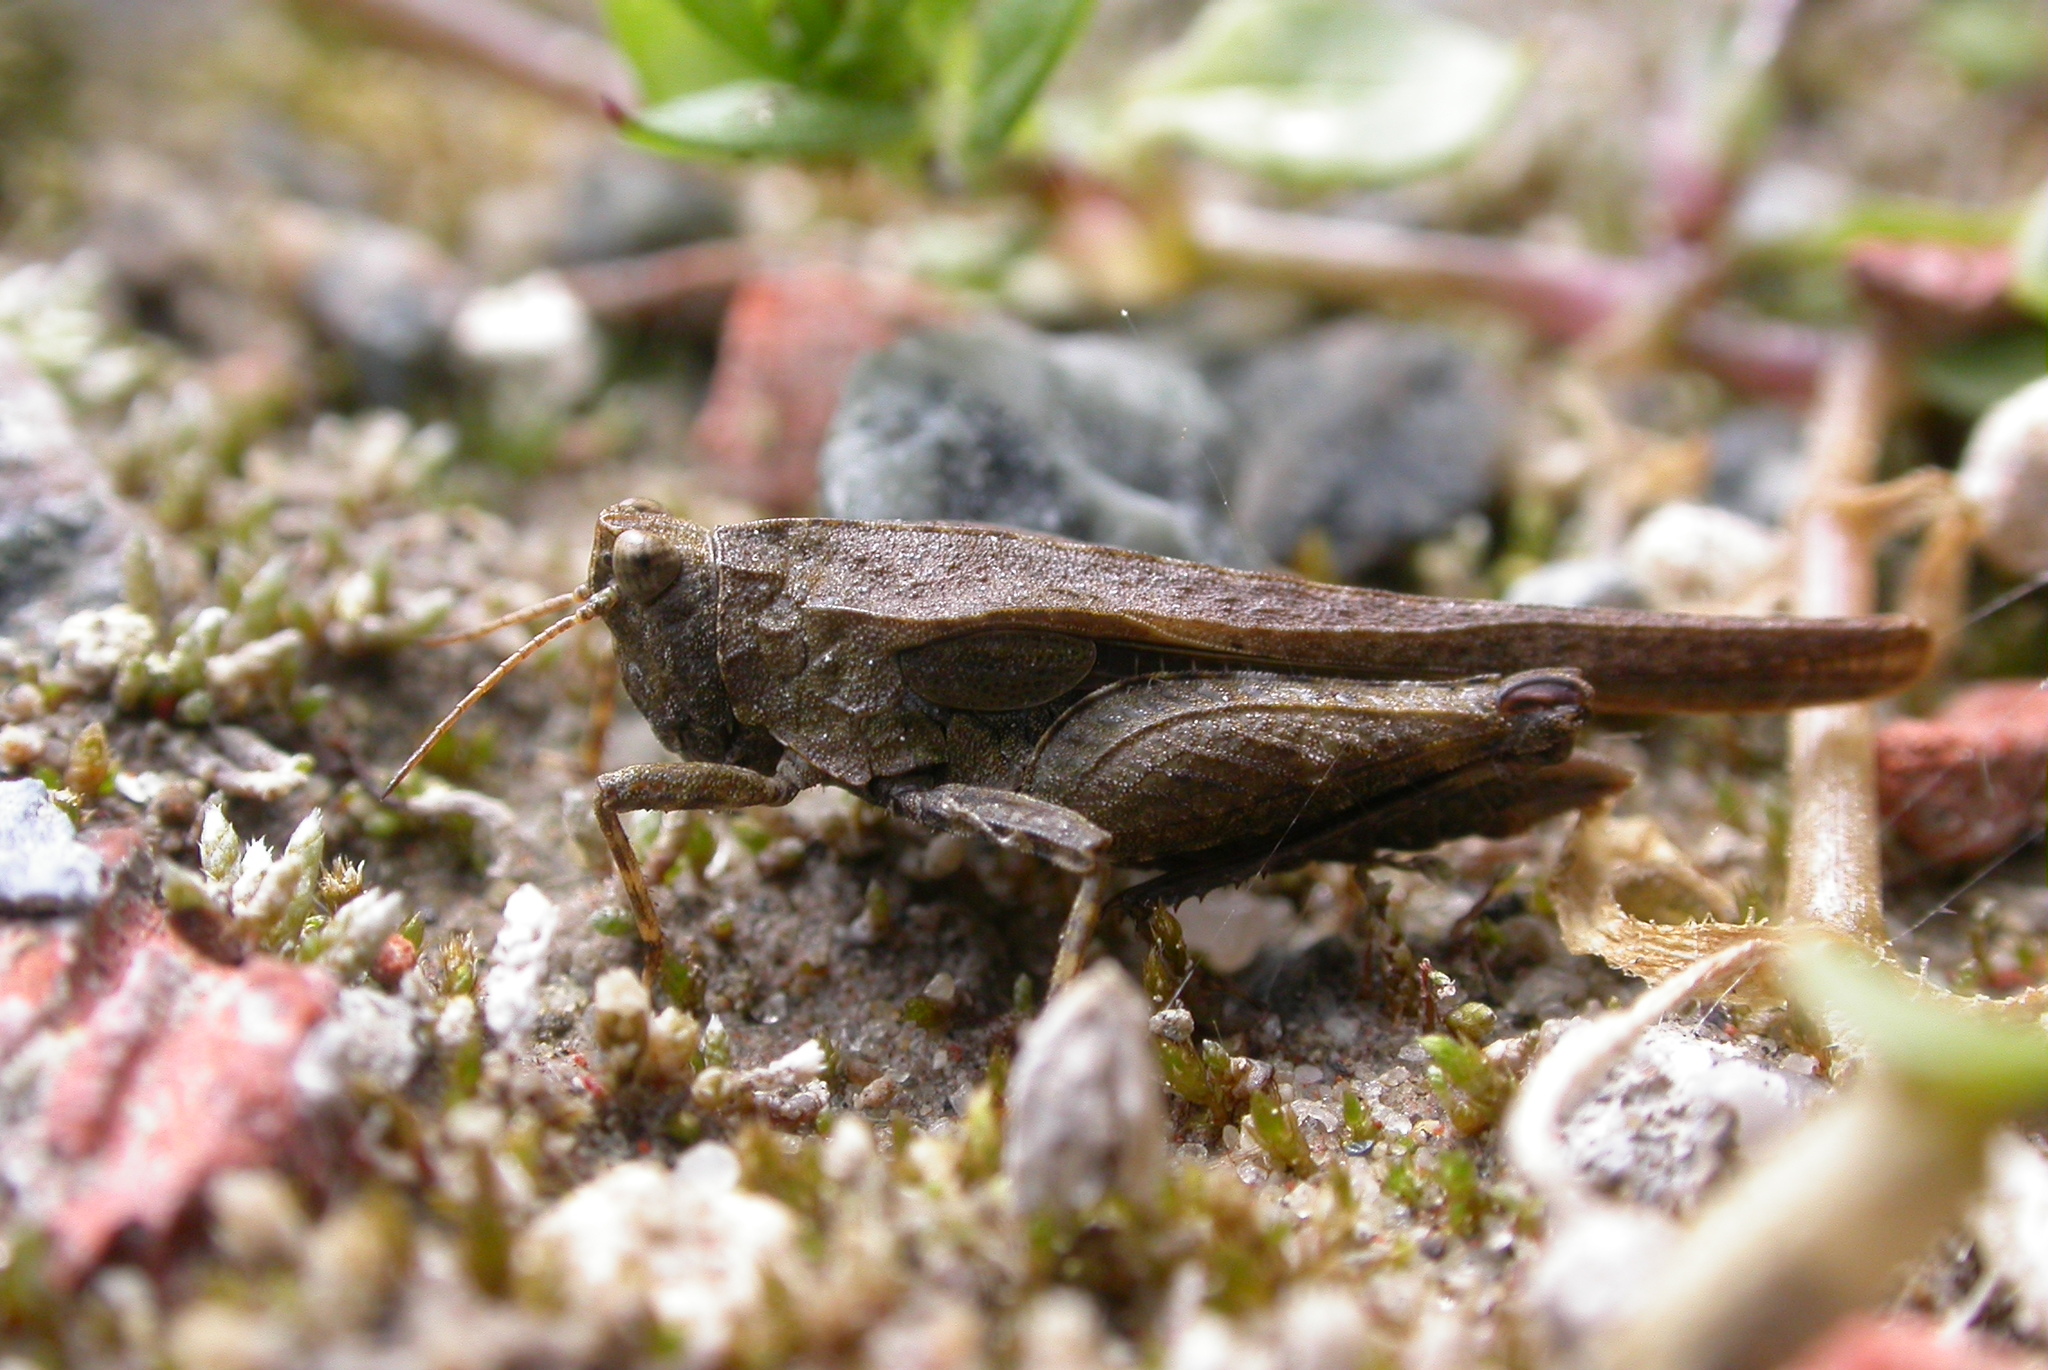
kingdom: Animalia
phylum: Arthropoda
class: Insecta
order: Orthoptera
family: Tetrigidae
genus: Tetrix
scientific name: Tetrix subulata
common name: Slender ground-hopper
